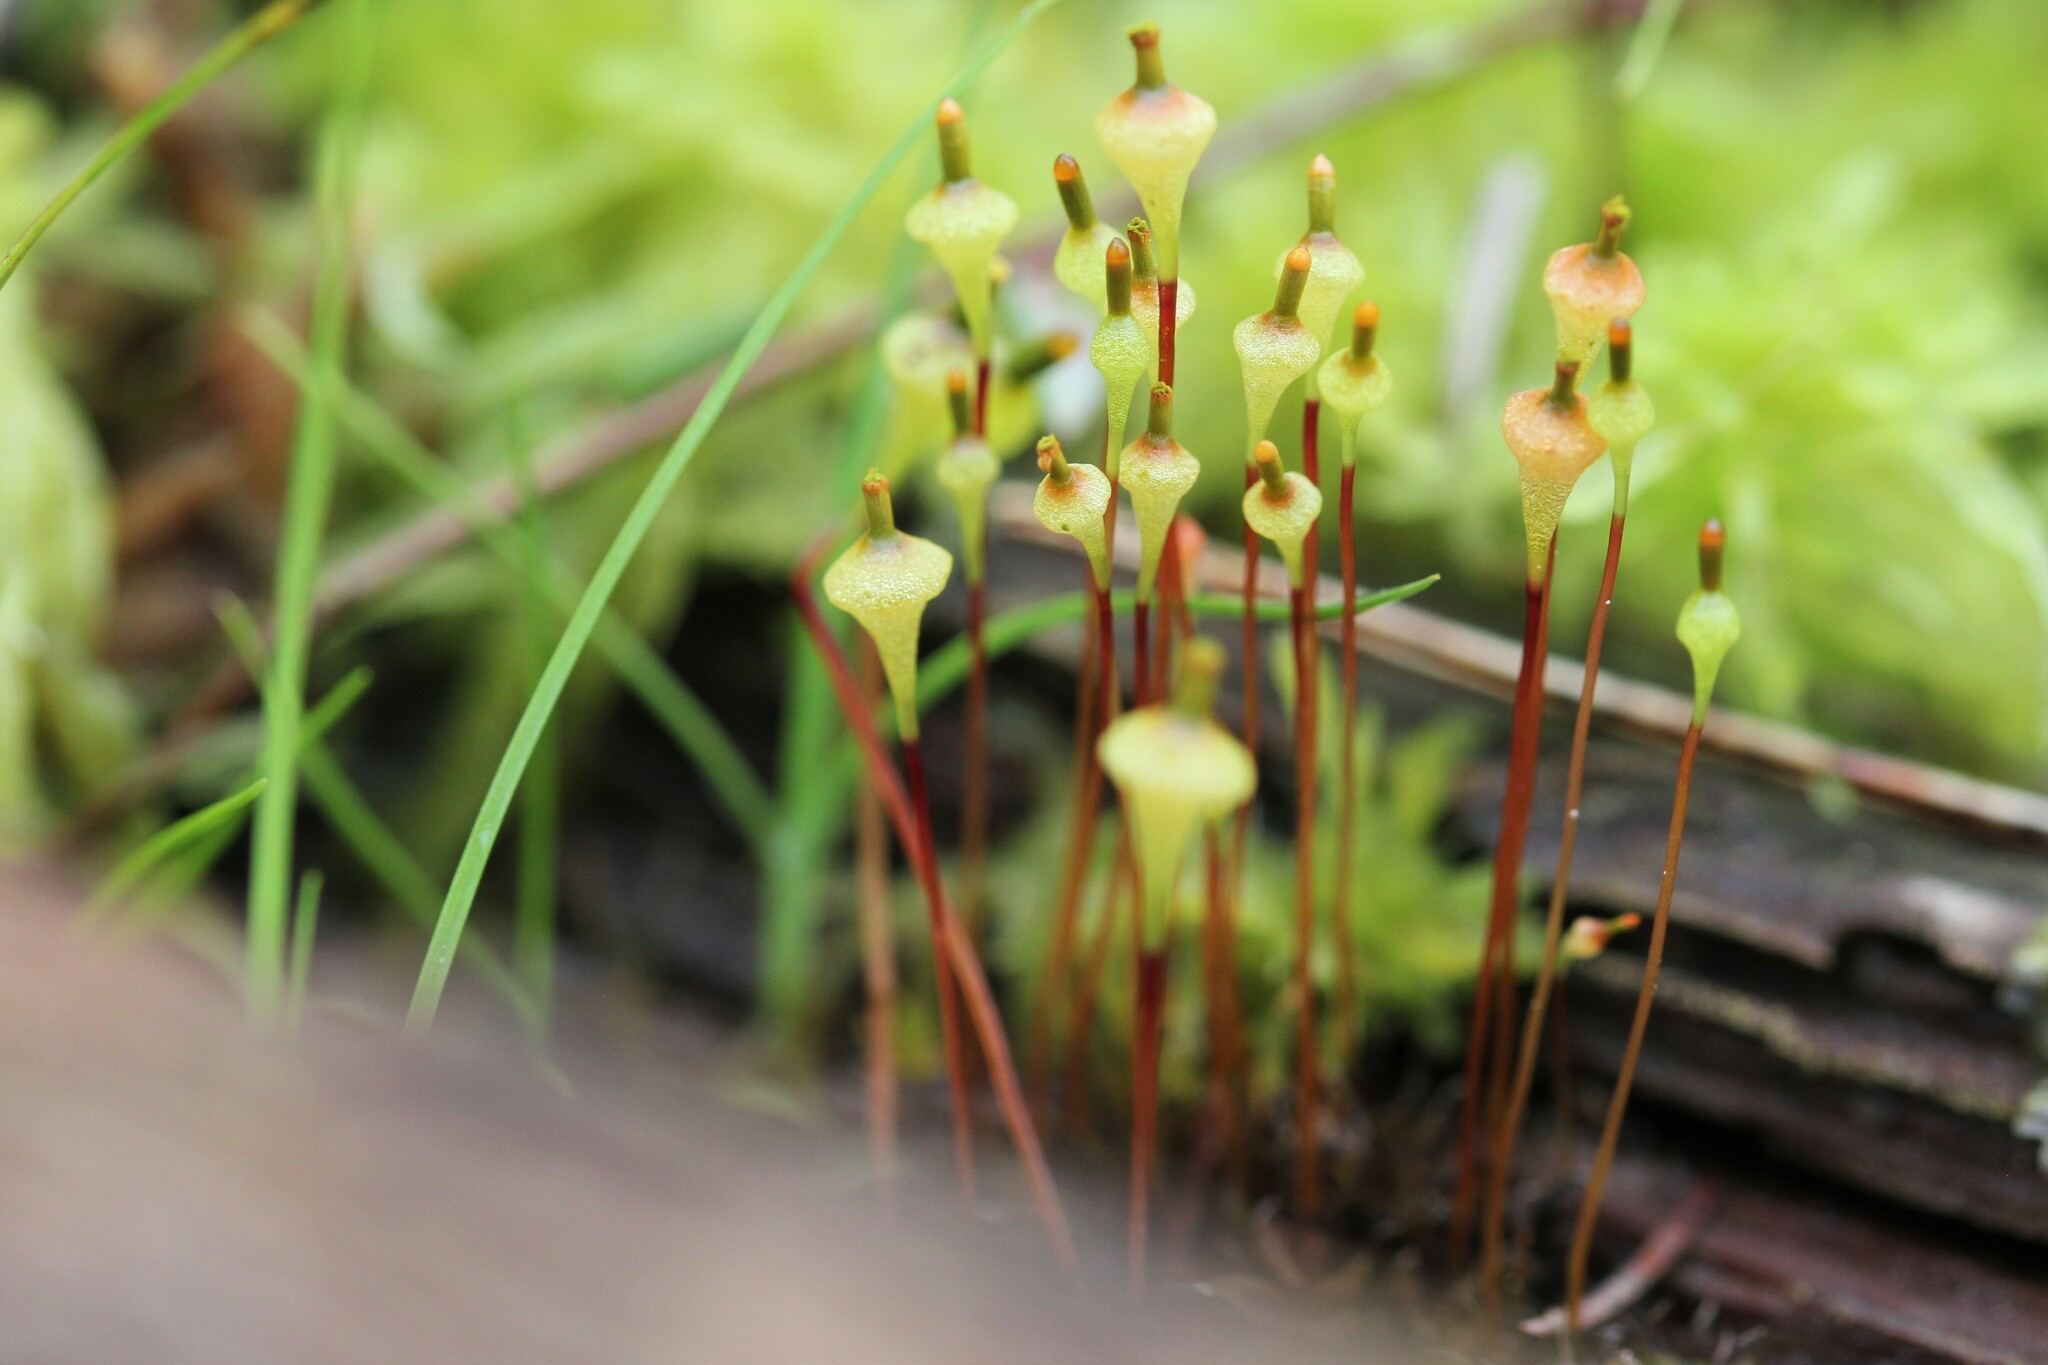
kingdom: Plantae
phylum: Bryophyta
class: Bryopsida
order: Splachnales
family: Splachnaceae
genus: Splachnum
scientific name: Splachnum ampullaceum
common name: Cruet dung moss
